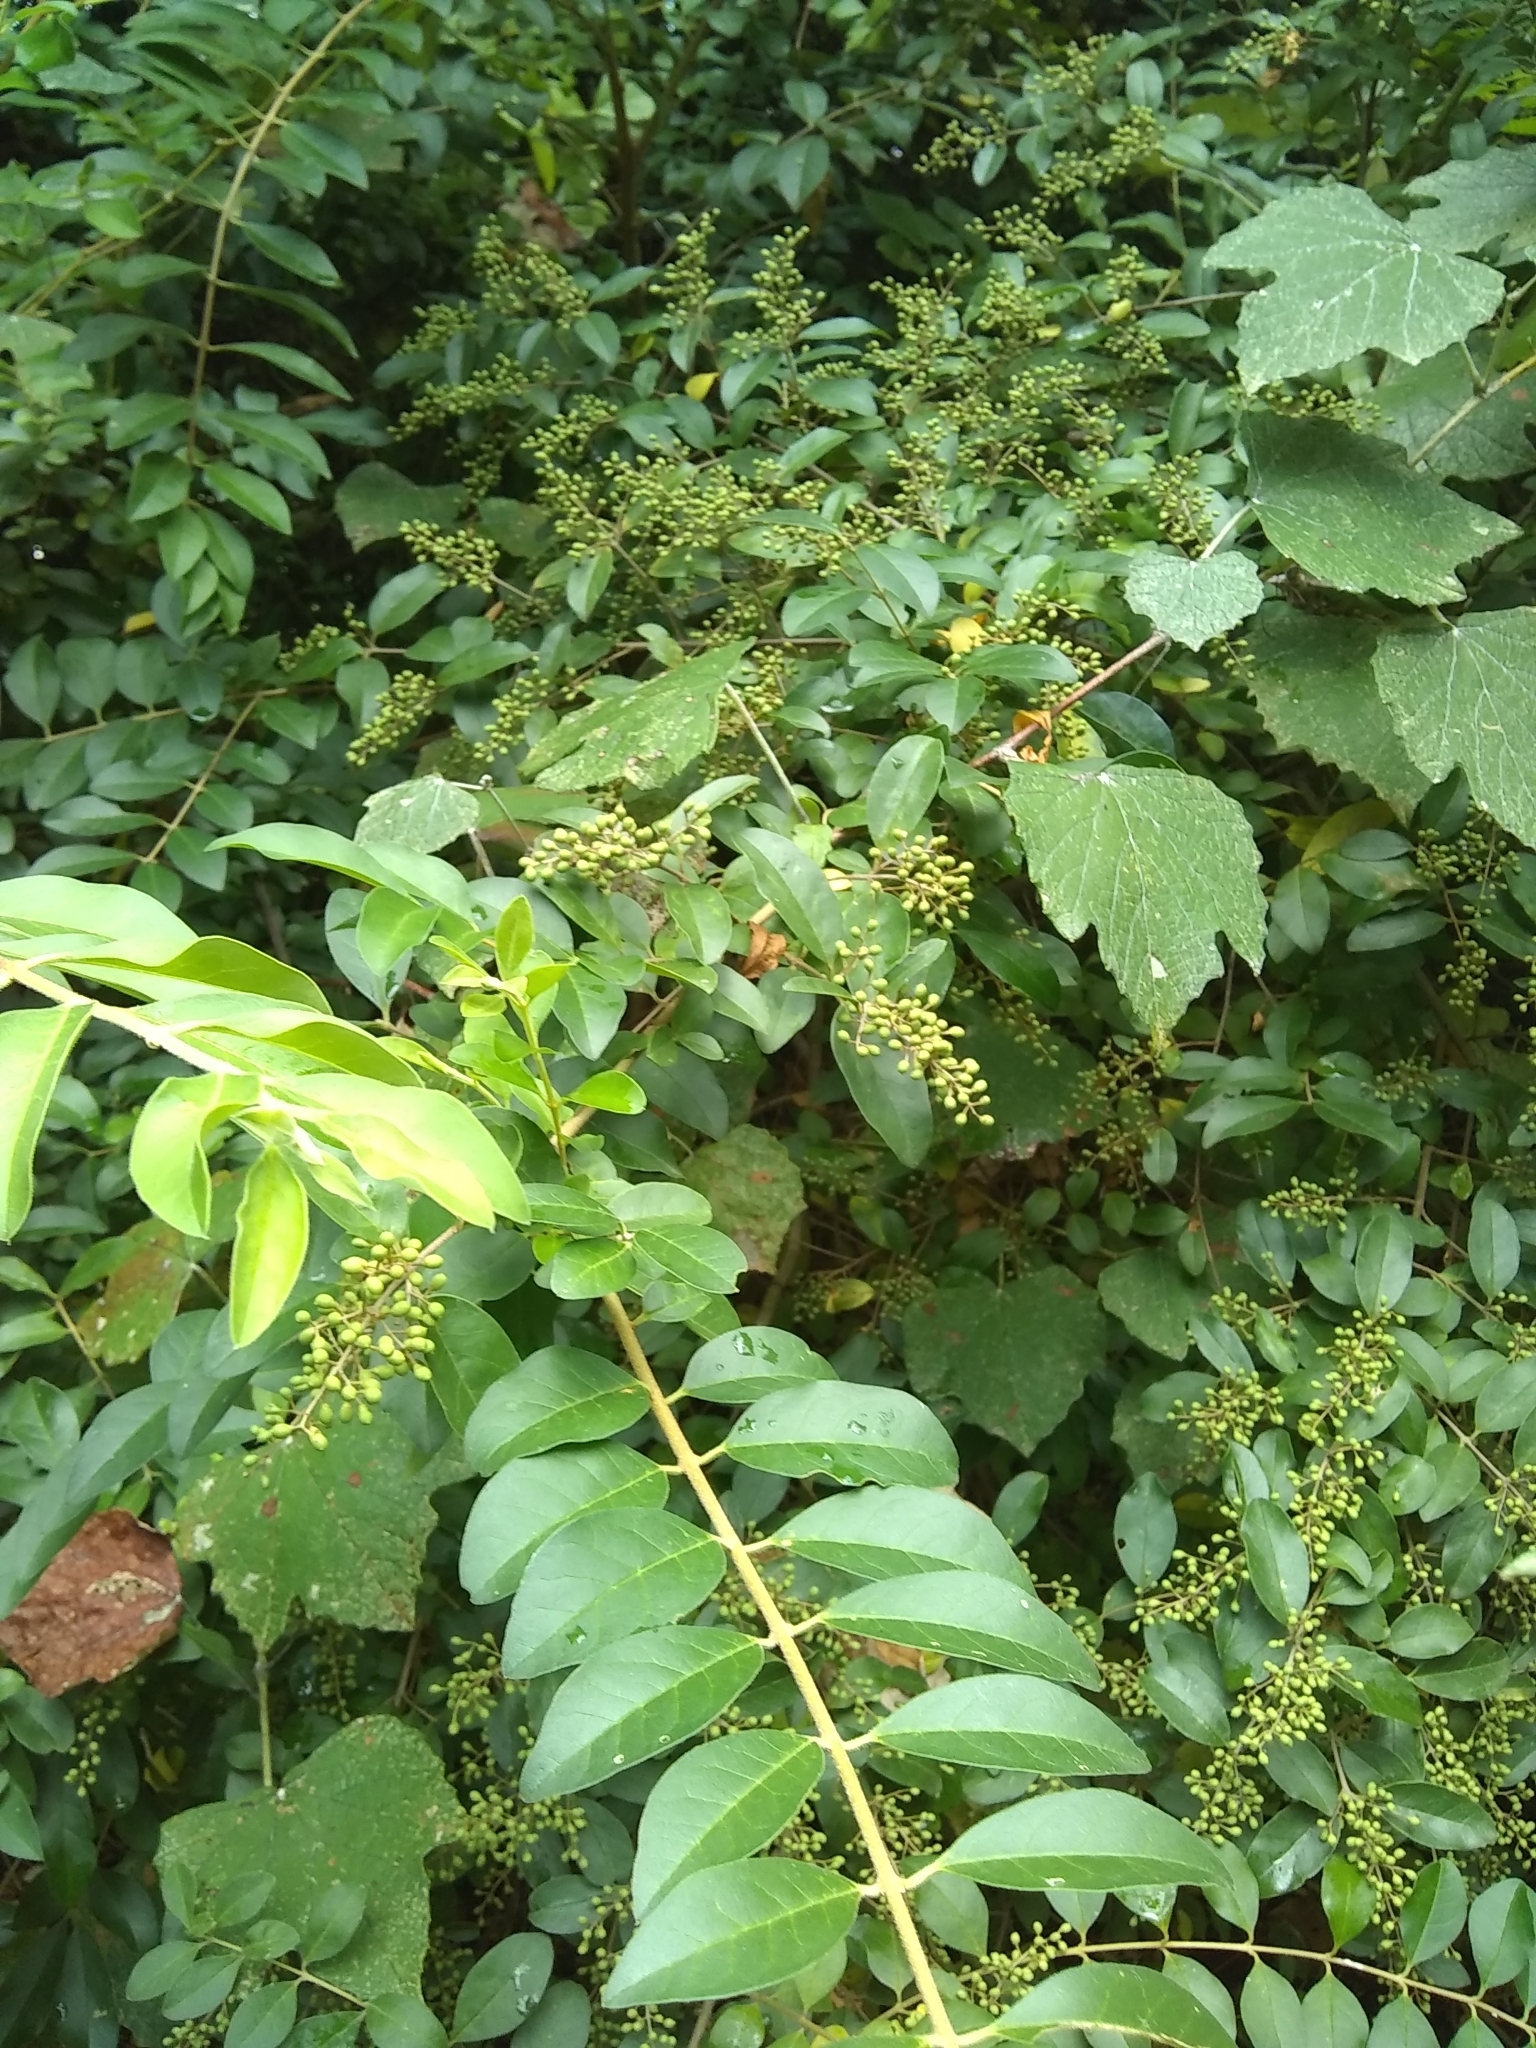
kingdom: Plantae
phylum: Tracheophyta
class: Magnoliopsida
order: Lamiales
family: Oleaceae
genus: Ligustrum
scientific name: Ligustrum sinense
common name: Chinese privet
